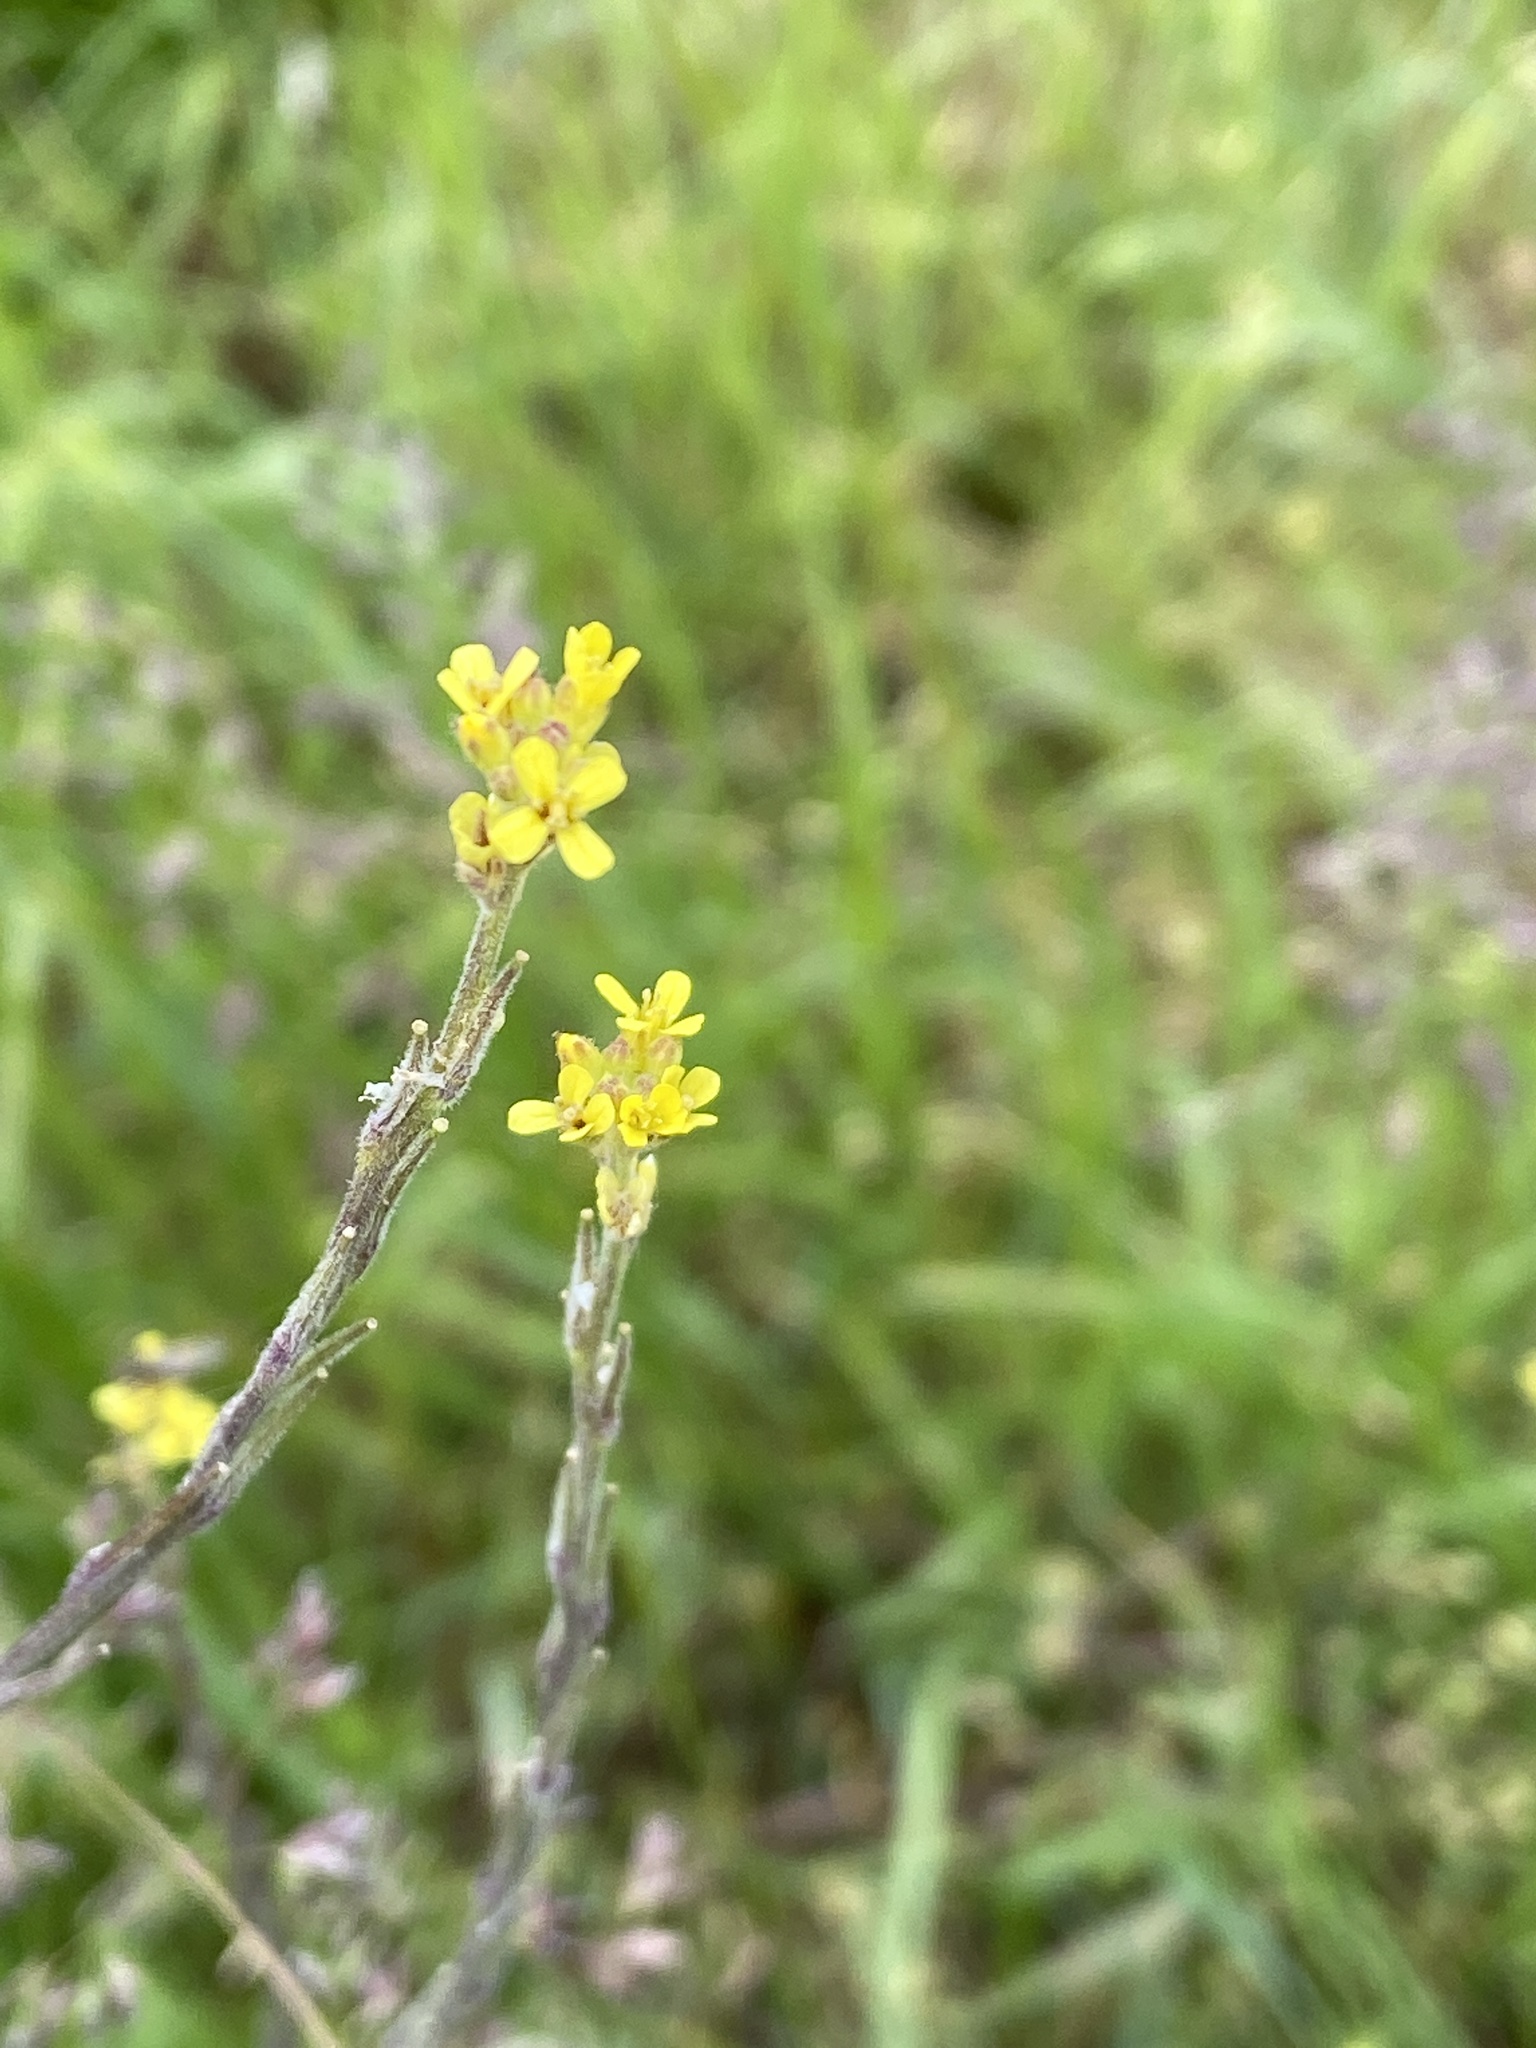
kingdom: Plantae
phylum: Tracheophyta
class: Magnoliopsida
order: Brassicales
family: Brassicaceae
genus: Sisymbrium
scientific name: Sisymbrium officinale
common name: Hedge mustard
